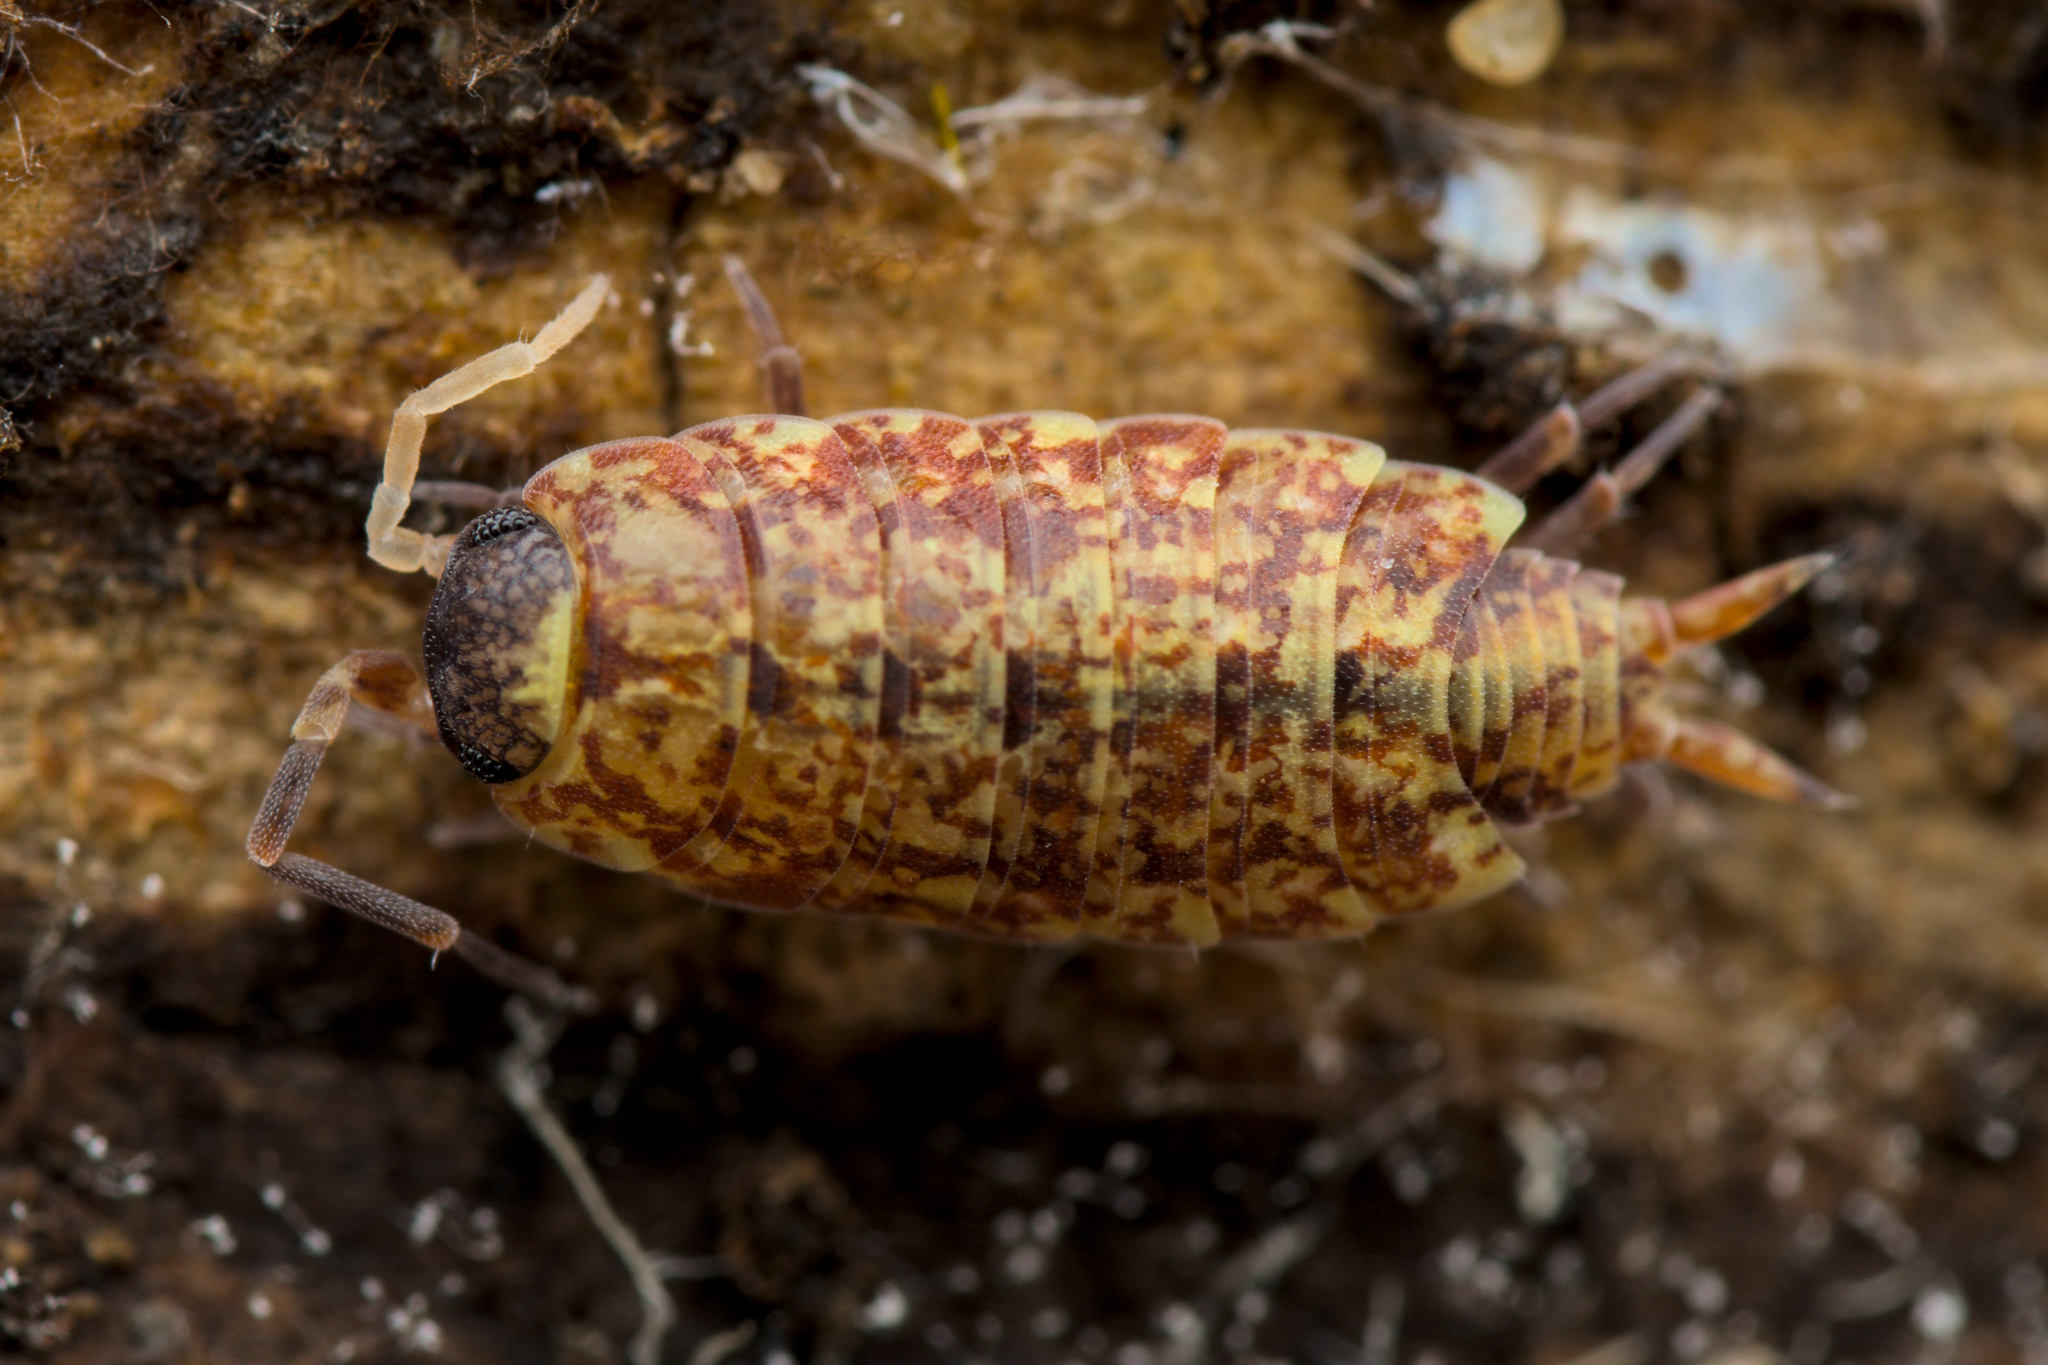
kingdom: Animalia
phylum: Arthropoda
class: Malacostraca
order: Isopoda
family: Porcellionidae
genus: Porcellionides
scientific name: Porcellionides cingendus
